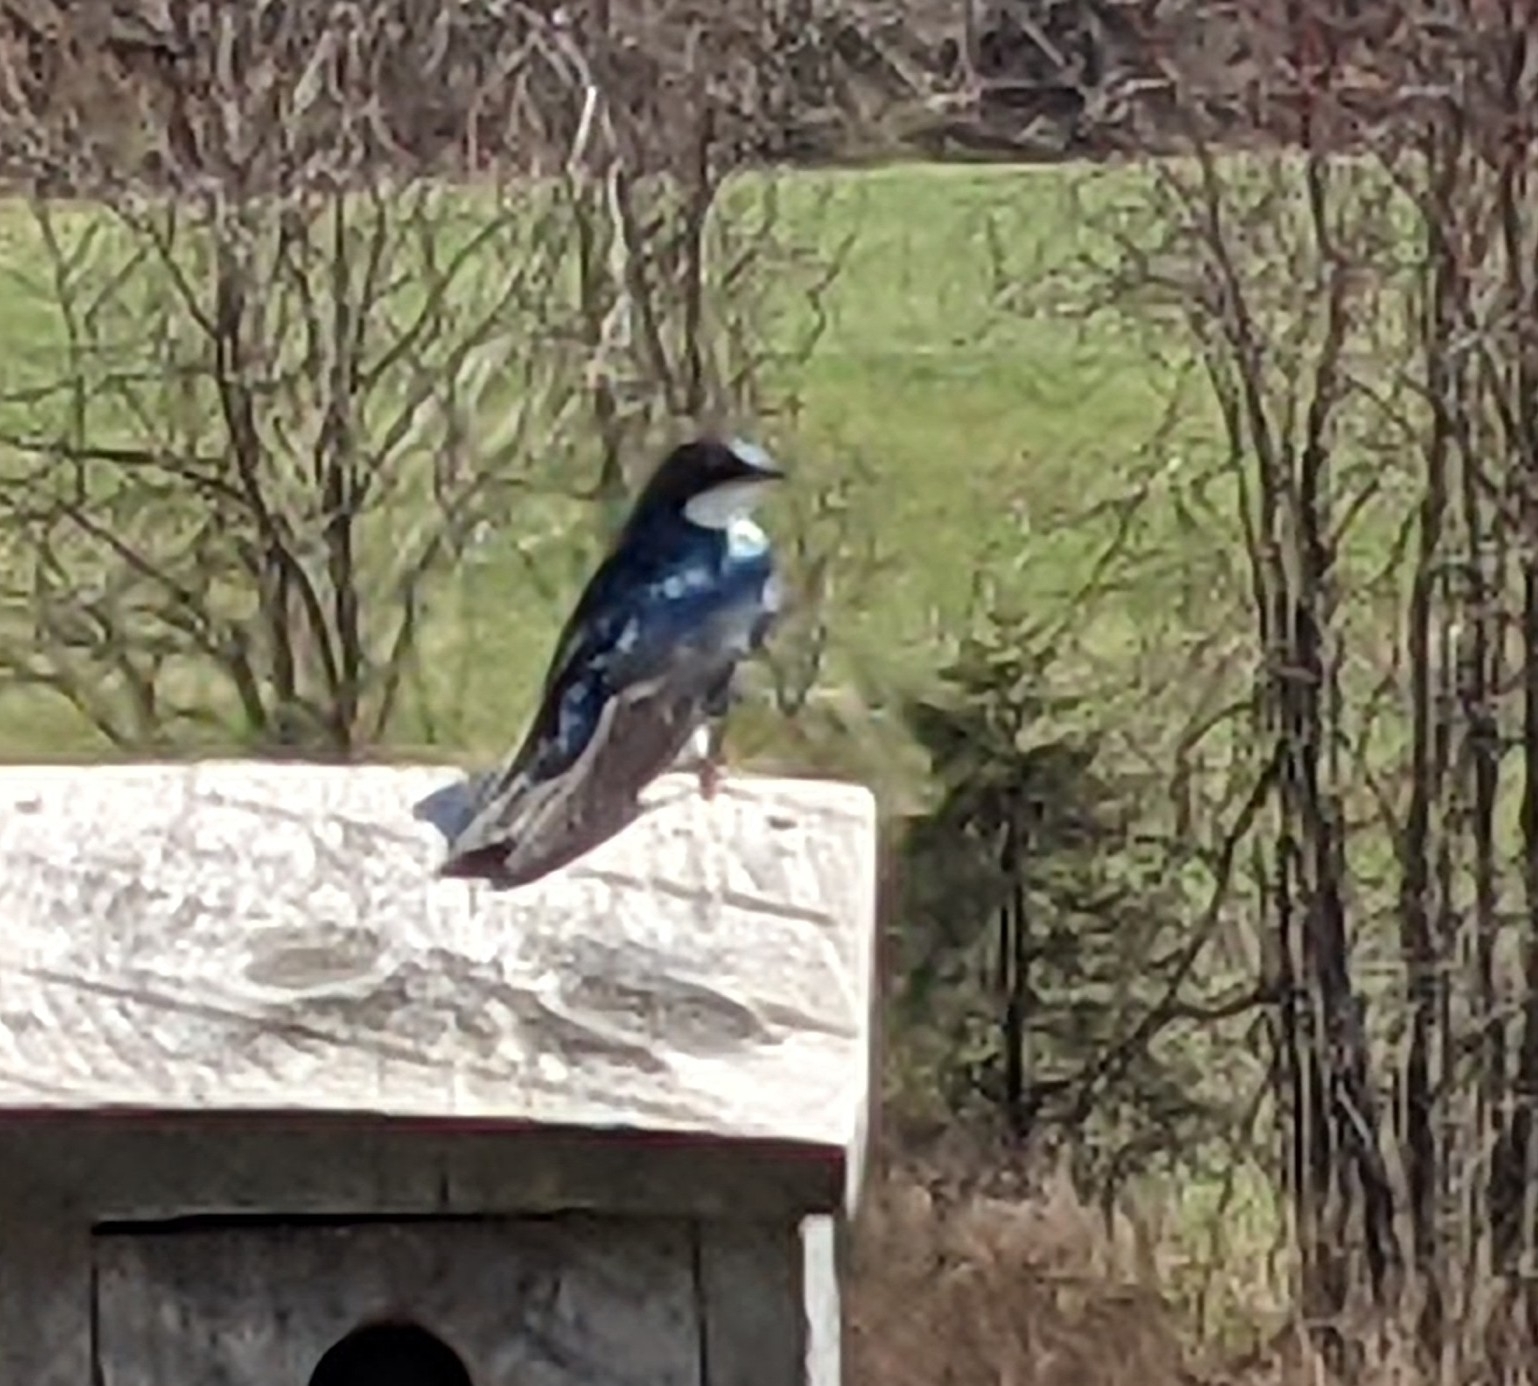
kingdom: Animalia
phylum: Chordata
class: Aves
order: Passeriformes
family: Hirundinidae
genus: Tachycineta
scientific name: Tachycineta bicolor
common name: Tree swallow
